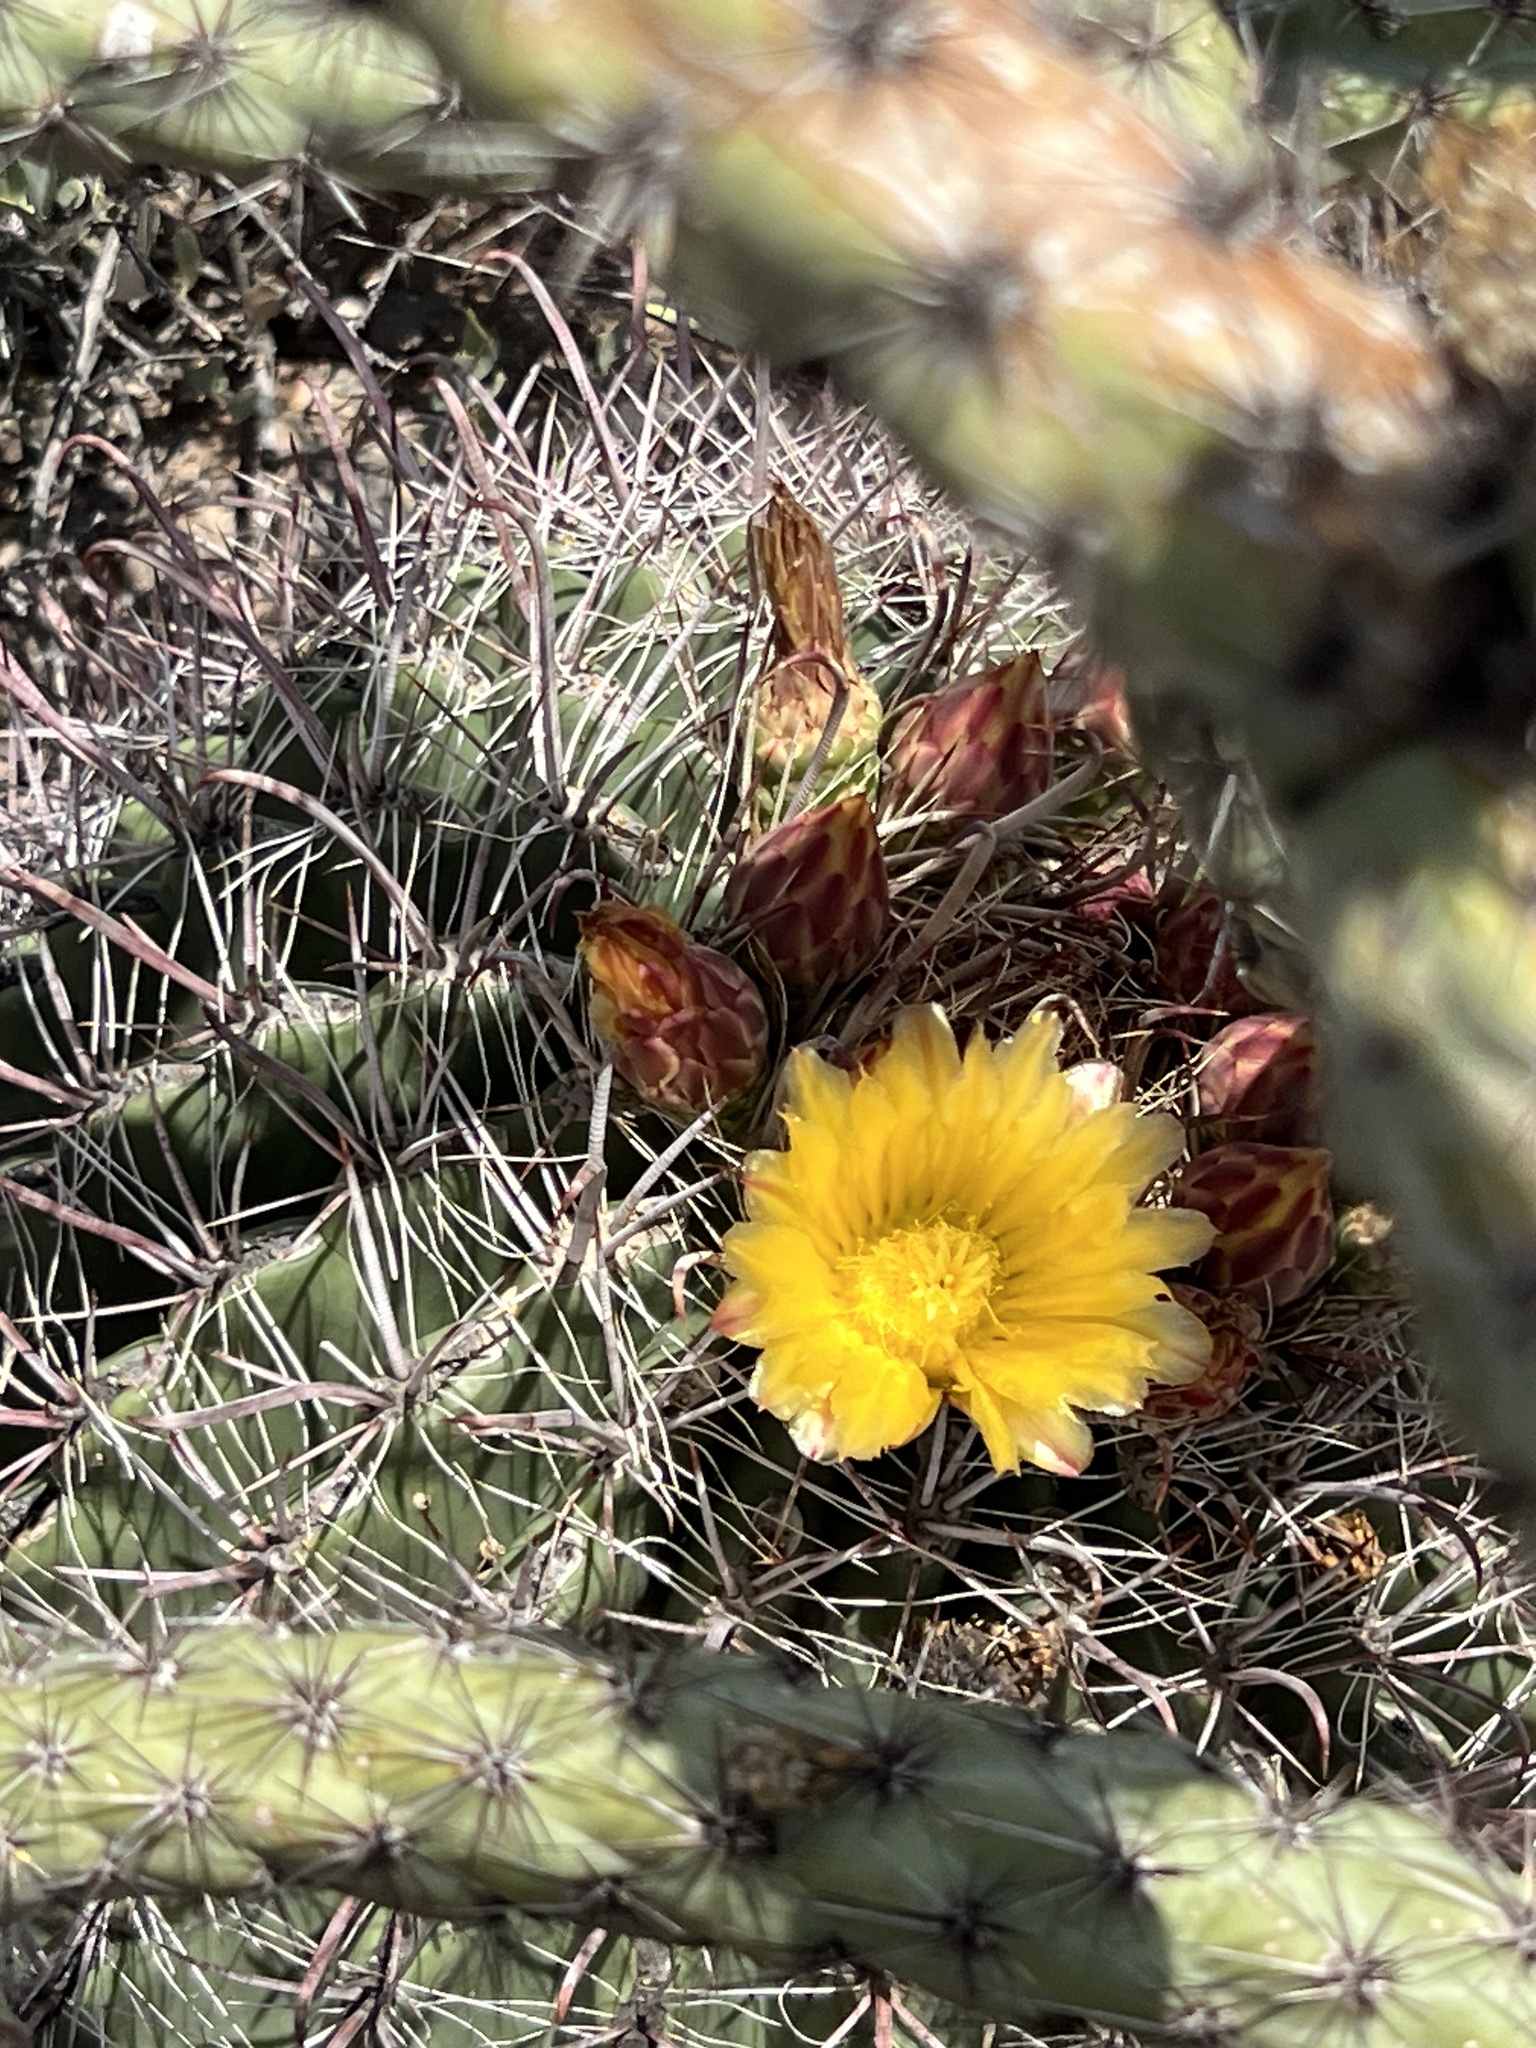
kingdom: Plantae
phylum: Tracheophyta
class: Magnoliopsida
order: Caryophyllales
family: Cactaceae
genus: Ferocactus
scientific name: Ferocactus wislizeni
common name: Candy barrel cactus
